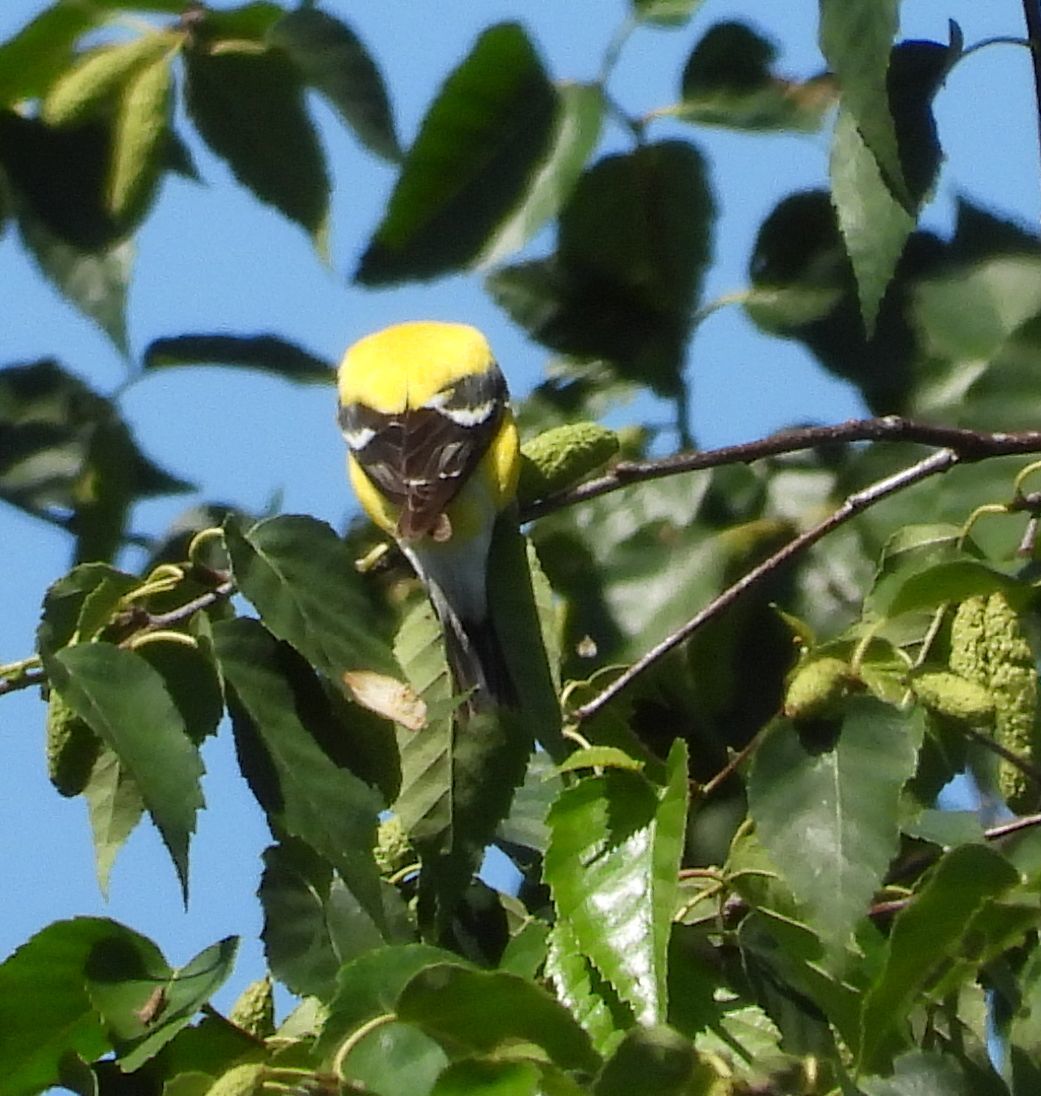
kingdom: Animalia
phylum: Chordata
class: Aves
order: Passeriformes
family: Fringillidae
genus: Spinus
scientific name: Spinus tristis
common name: American goldfinch
